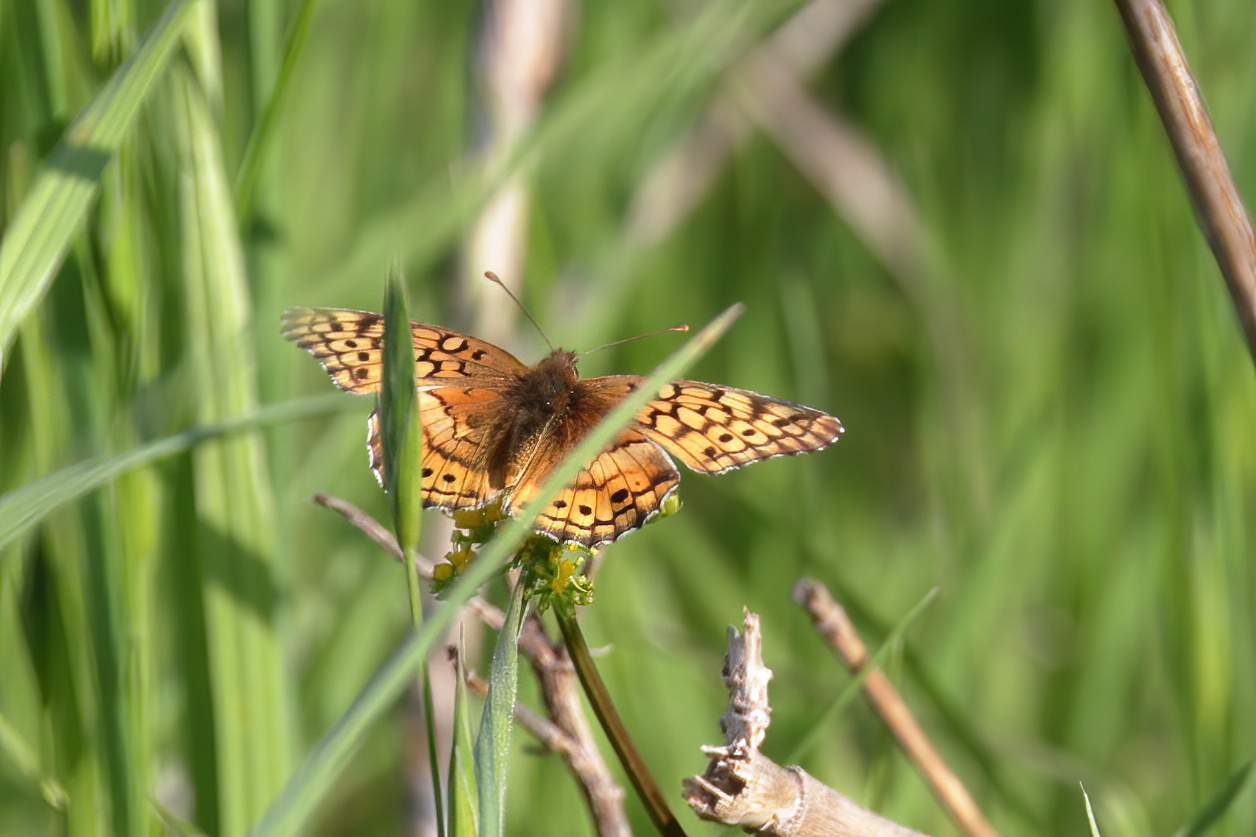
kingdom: Animalia
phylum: Arthropoda
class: Insecta
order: Lepidoptera
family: Nymphalidae
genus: Euptoieta
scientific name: Euptoieta claudia
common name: Variegated fritillary
